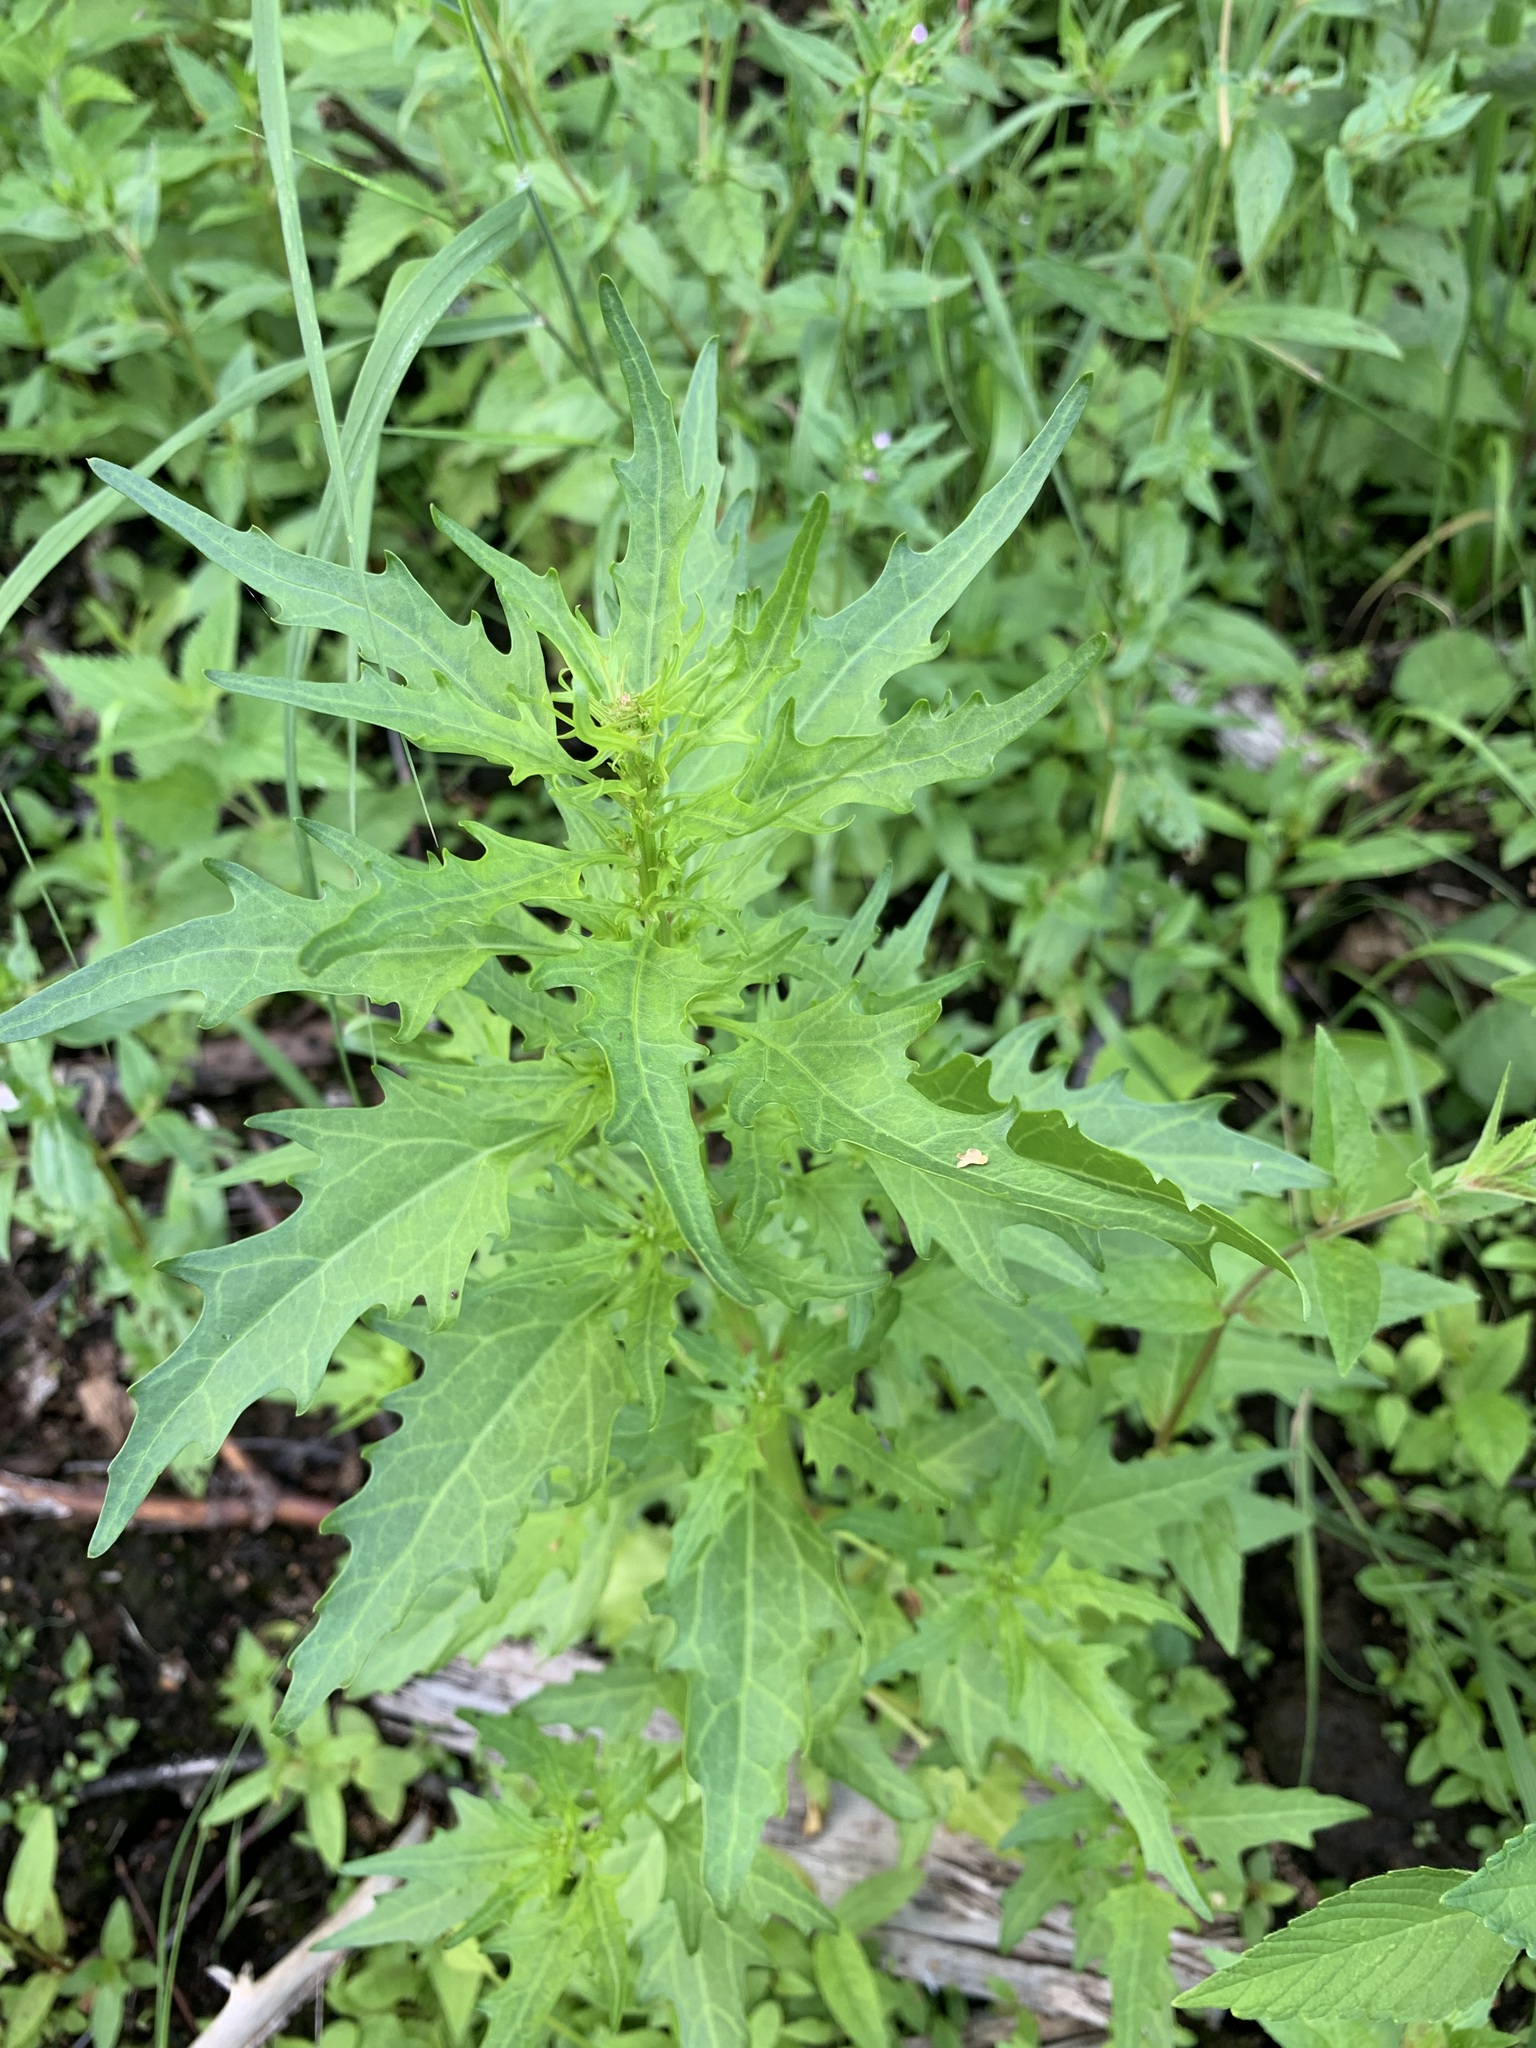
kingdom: Plantae
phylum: Tracheophyta
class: Magnoliopsida
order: Caryophyllales
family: Amaranthaceae
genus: Oxybasis
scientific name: Oxybasis rubra
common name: Red goosefoot
